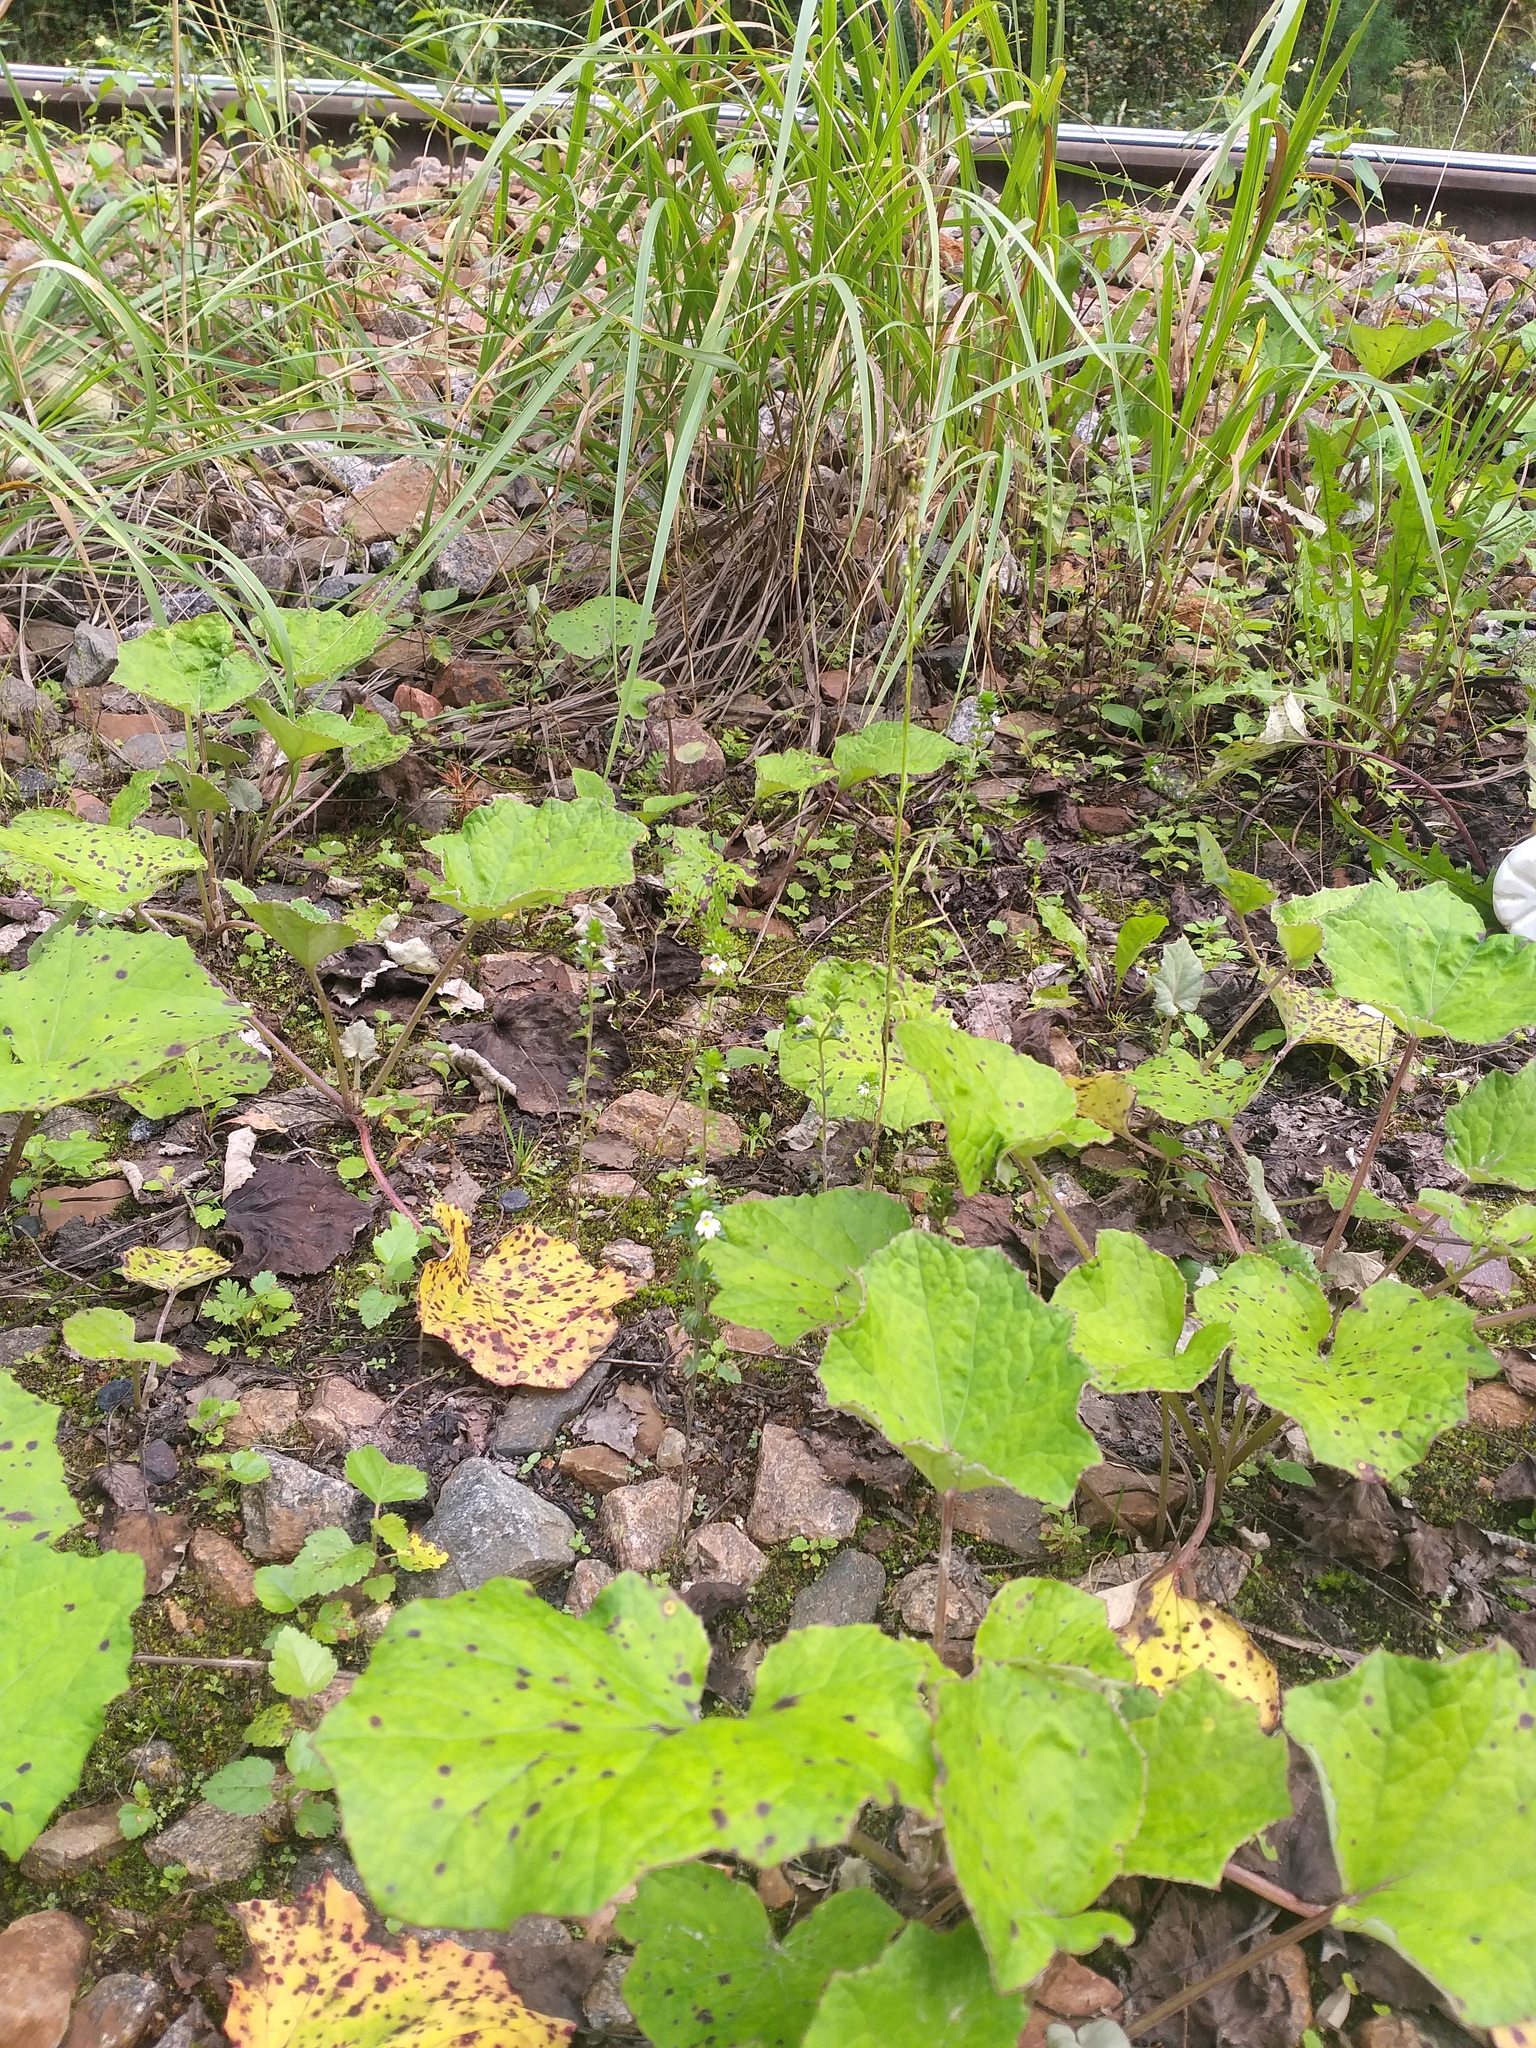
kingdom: Plantae
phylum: Tracheophyta
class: Magnoliopsida
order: Lamiales
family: Orobanchaceae
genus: Euphrasia
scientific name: Euphrasia stricta
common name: Drug eyebright
